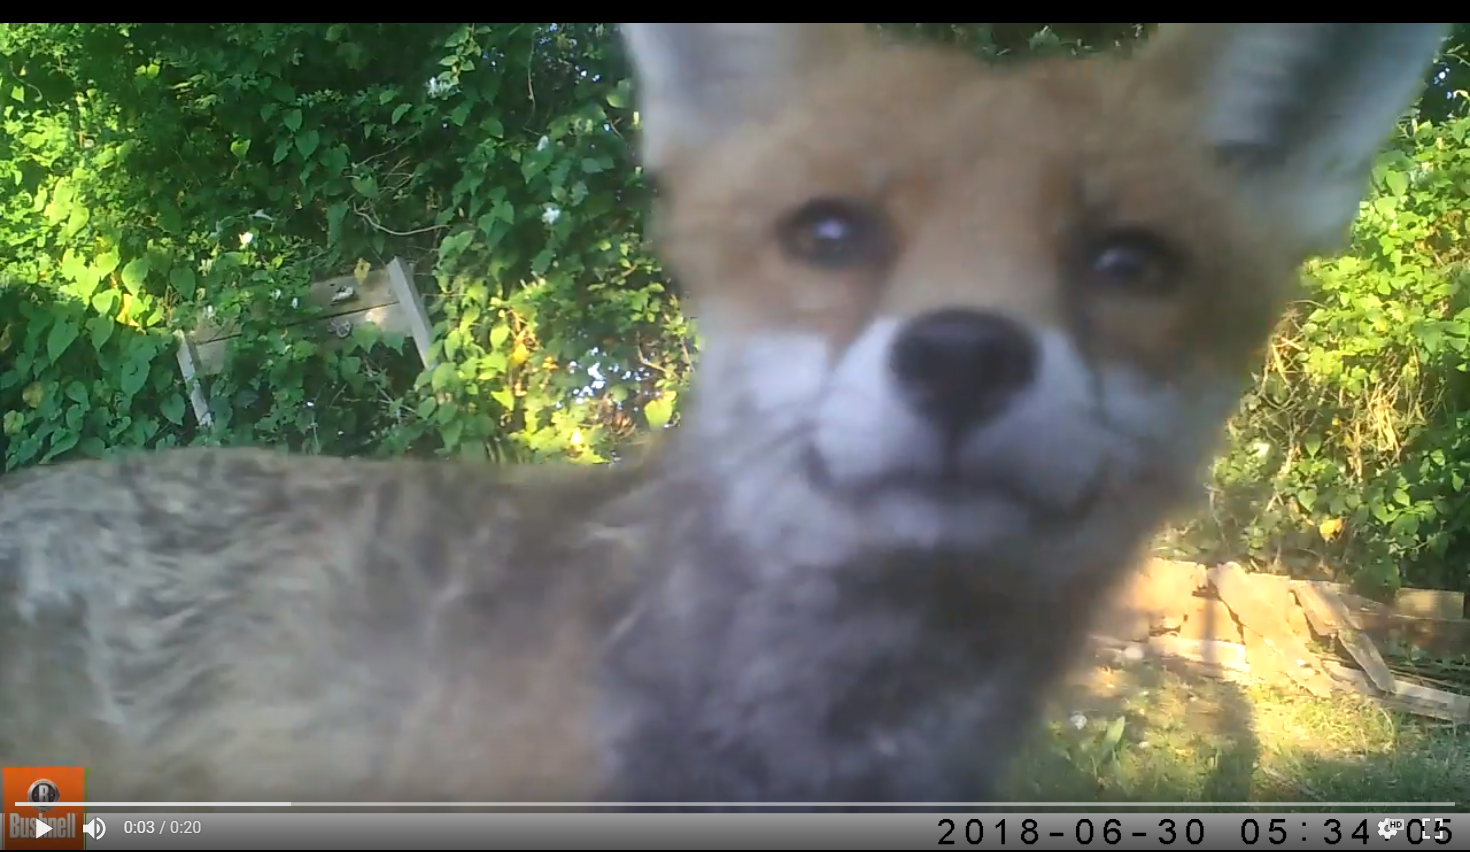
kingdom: Animalia
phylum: Chordata
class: Mammalia
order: Carnivora
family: Canidae
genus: Vulpes
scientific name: Vulpes vulpes
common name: Red fox
